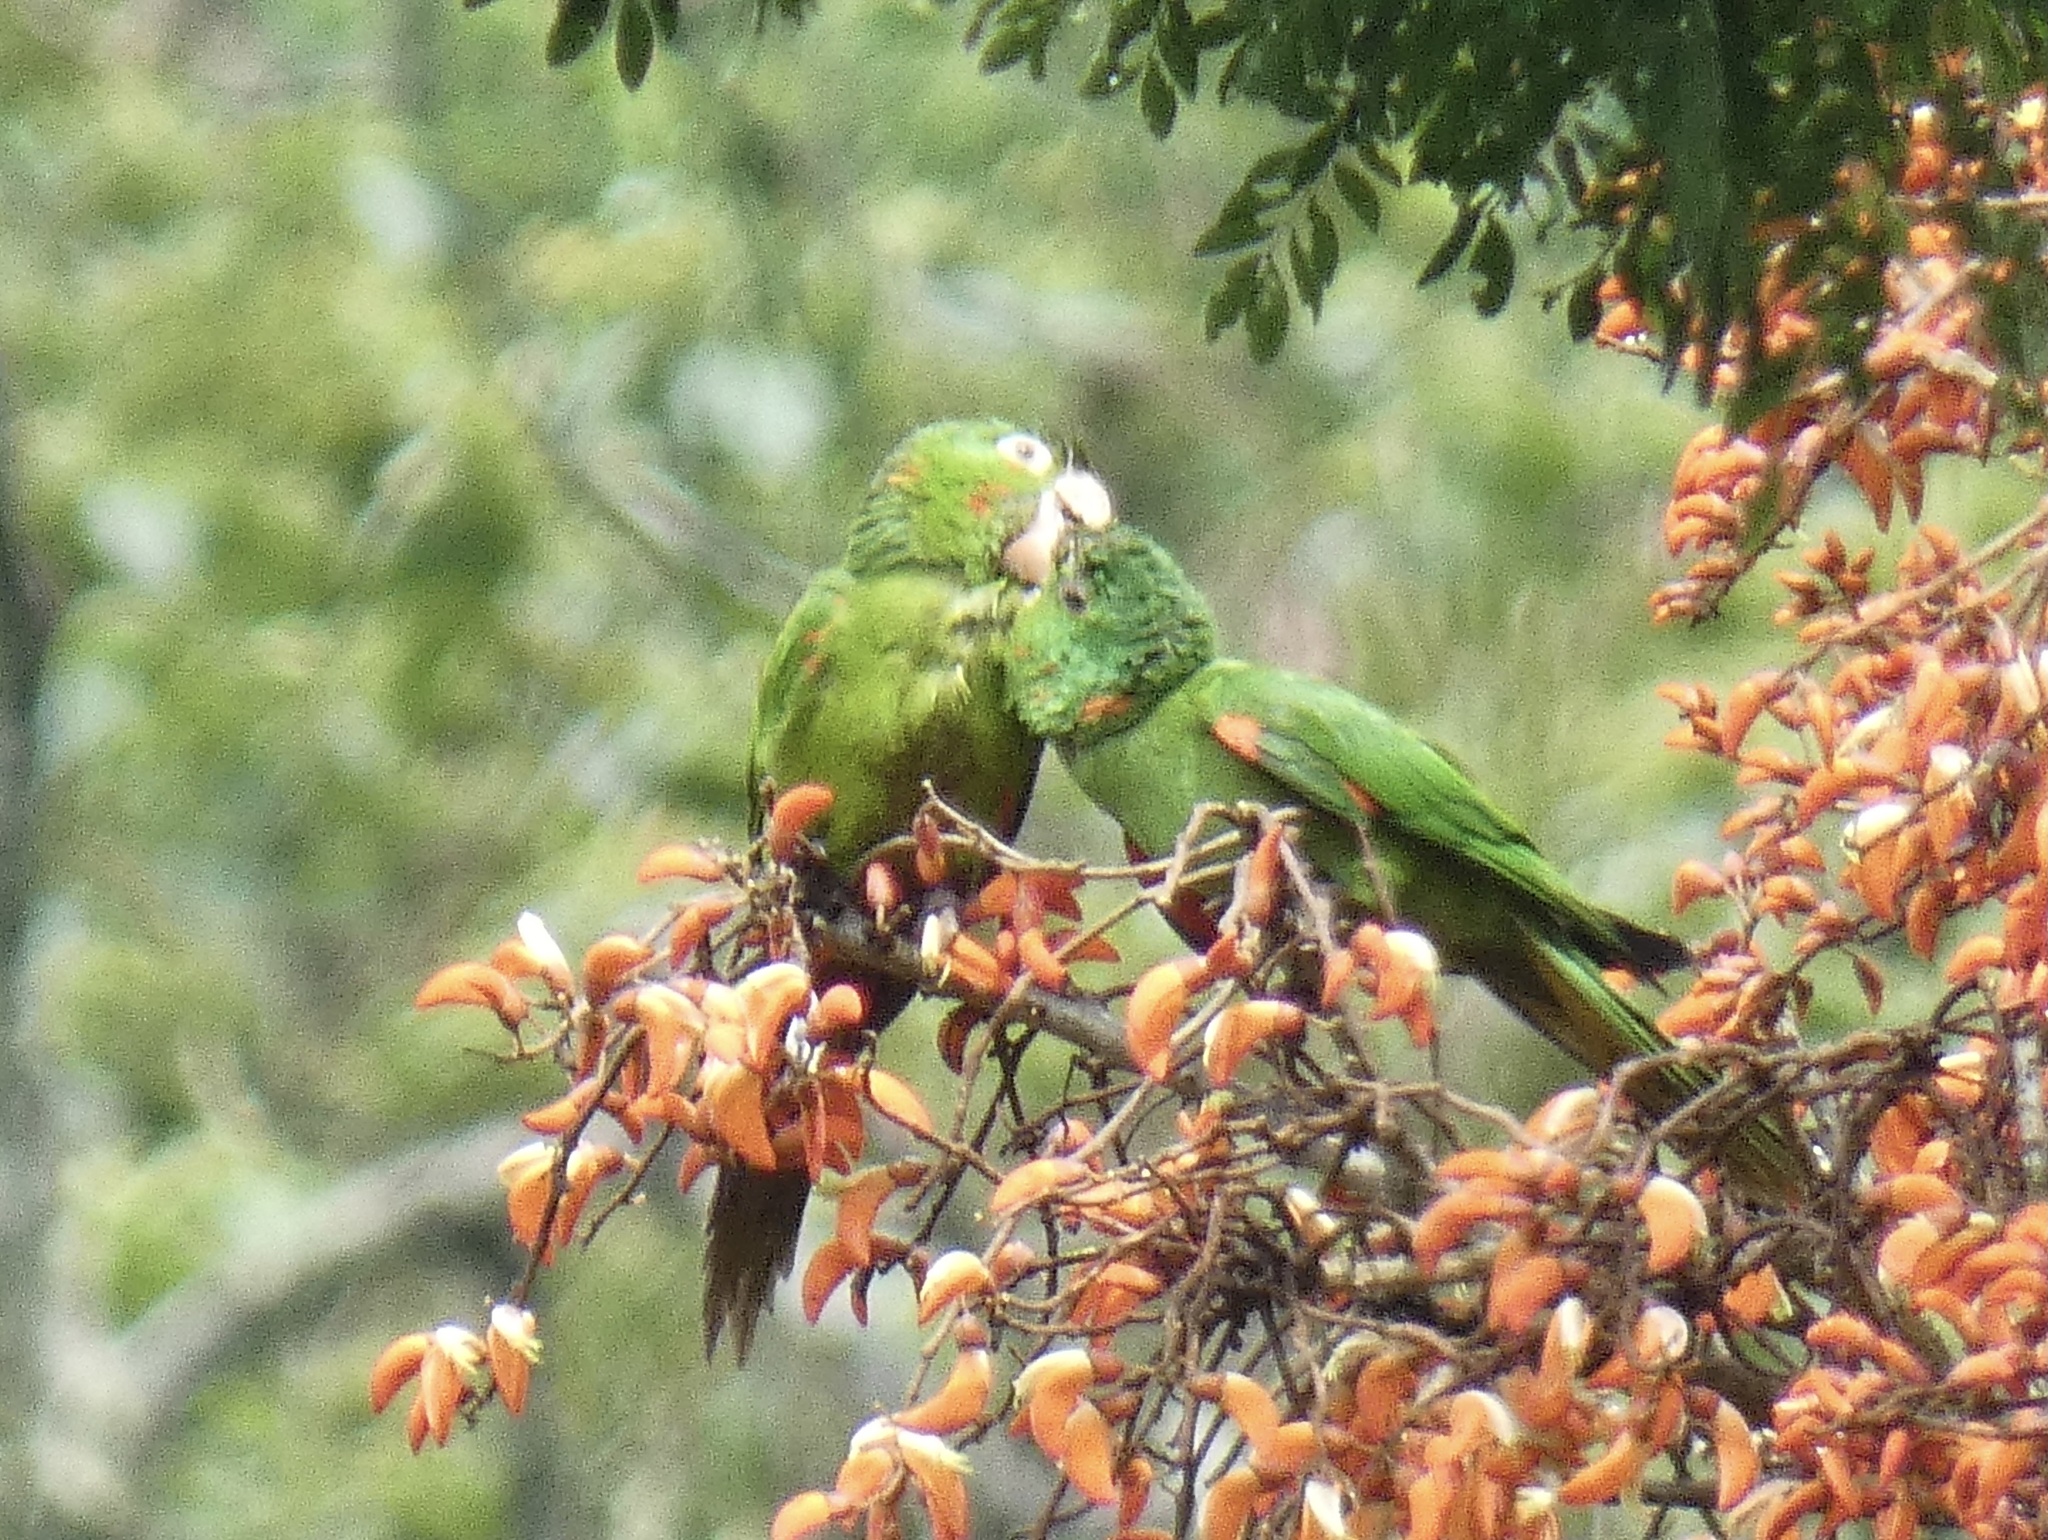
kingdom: Animalia
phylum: Chordata
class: Aves
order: Psittaciformes
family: Psittacidae
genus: Aratinga
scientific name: Aratinga leucophthalma
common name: White-eyed parakeet
